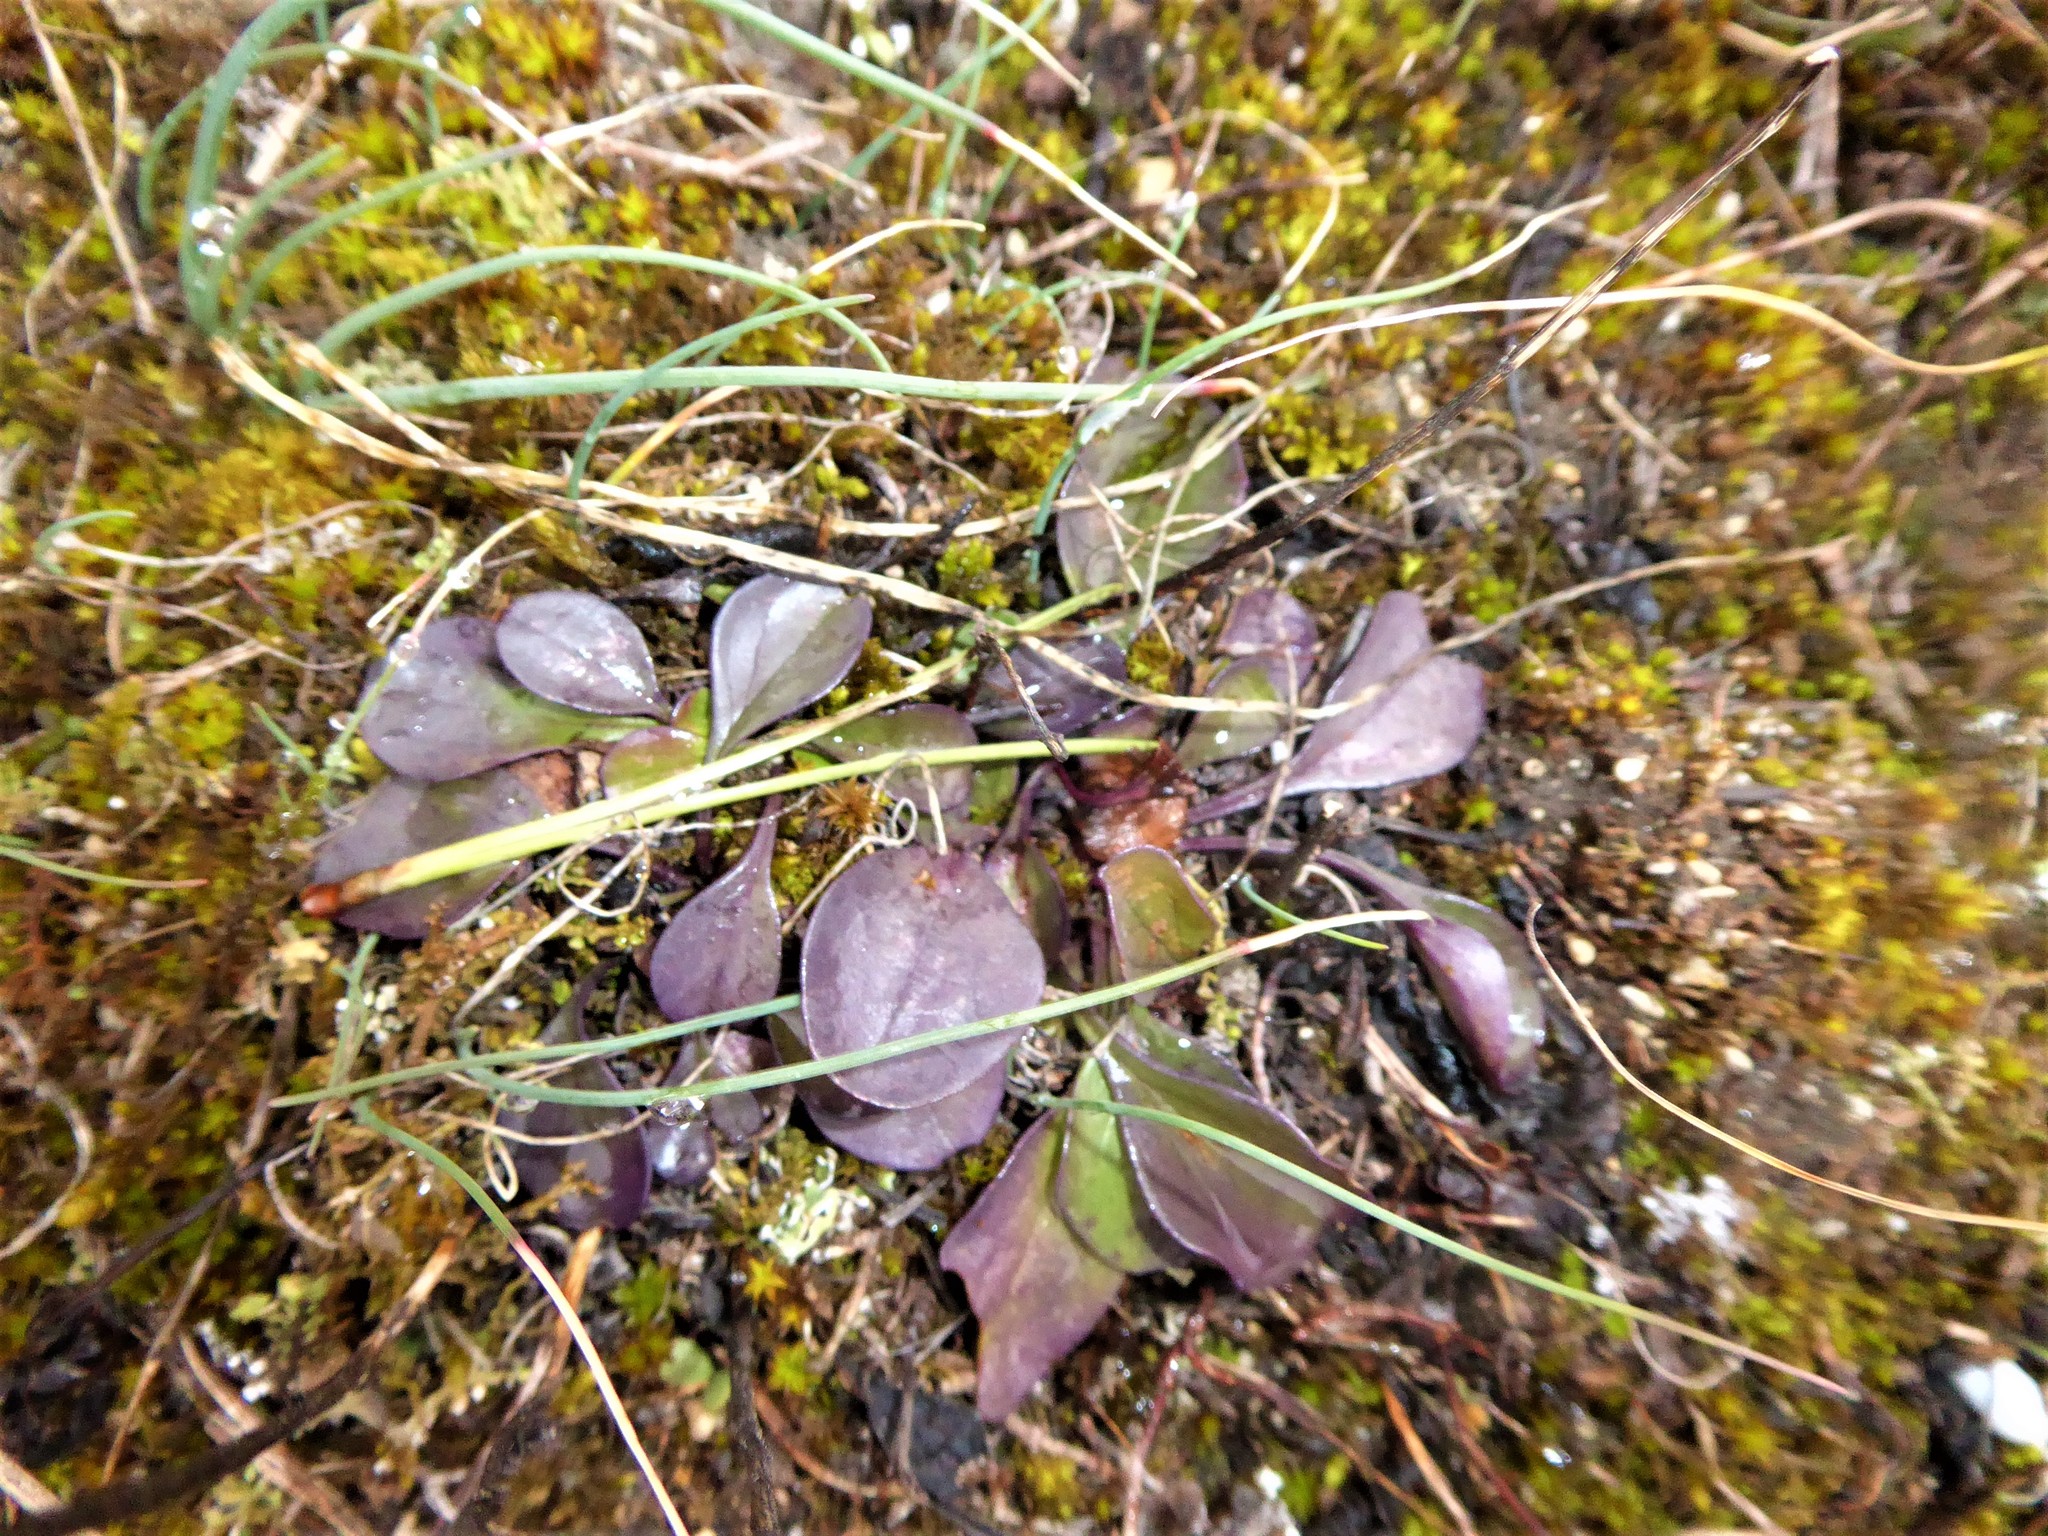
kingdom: Plantae
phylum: Tracheophyta
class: Magnoliopsida
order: Lamiales
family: Plantaginaceae
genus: Globularia
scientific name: Globularia bisnagarica
